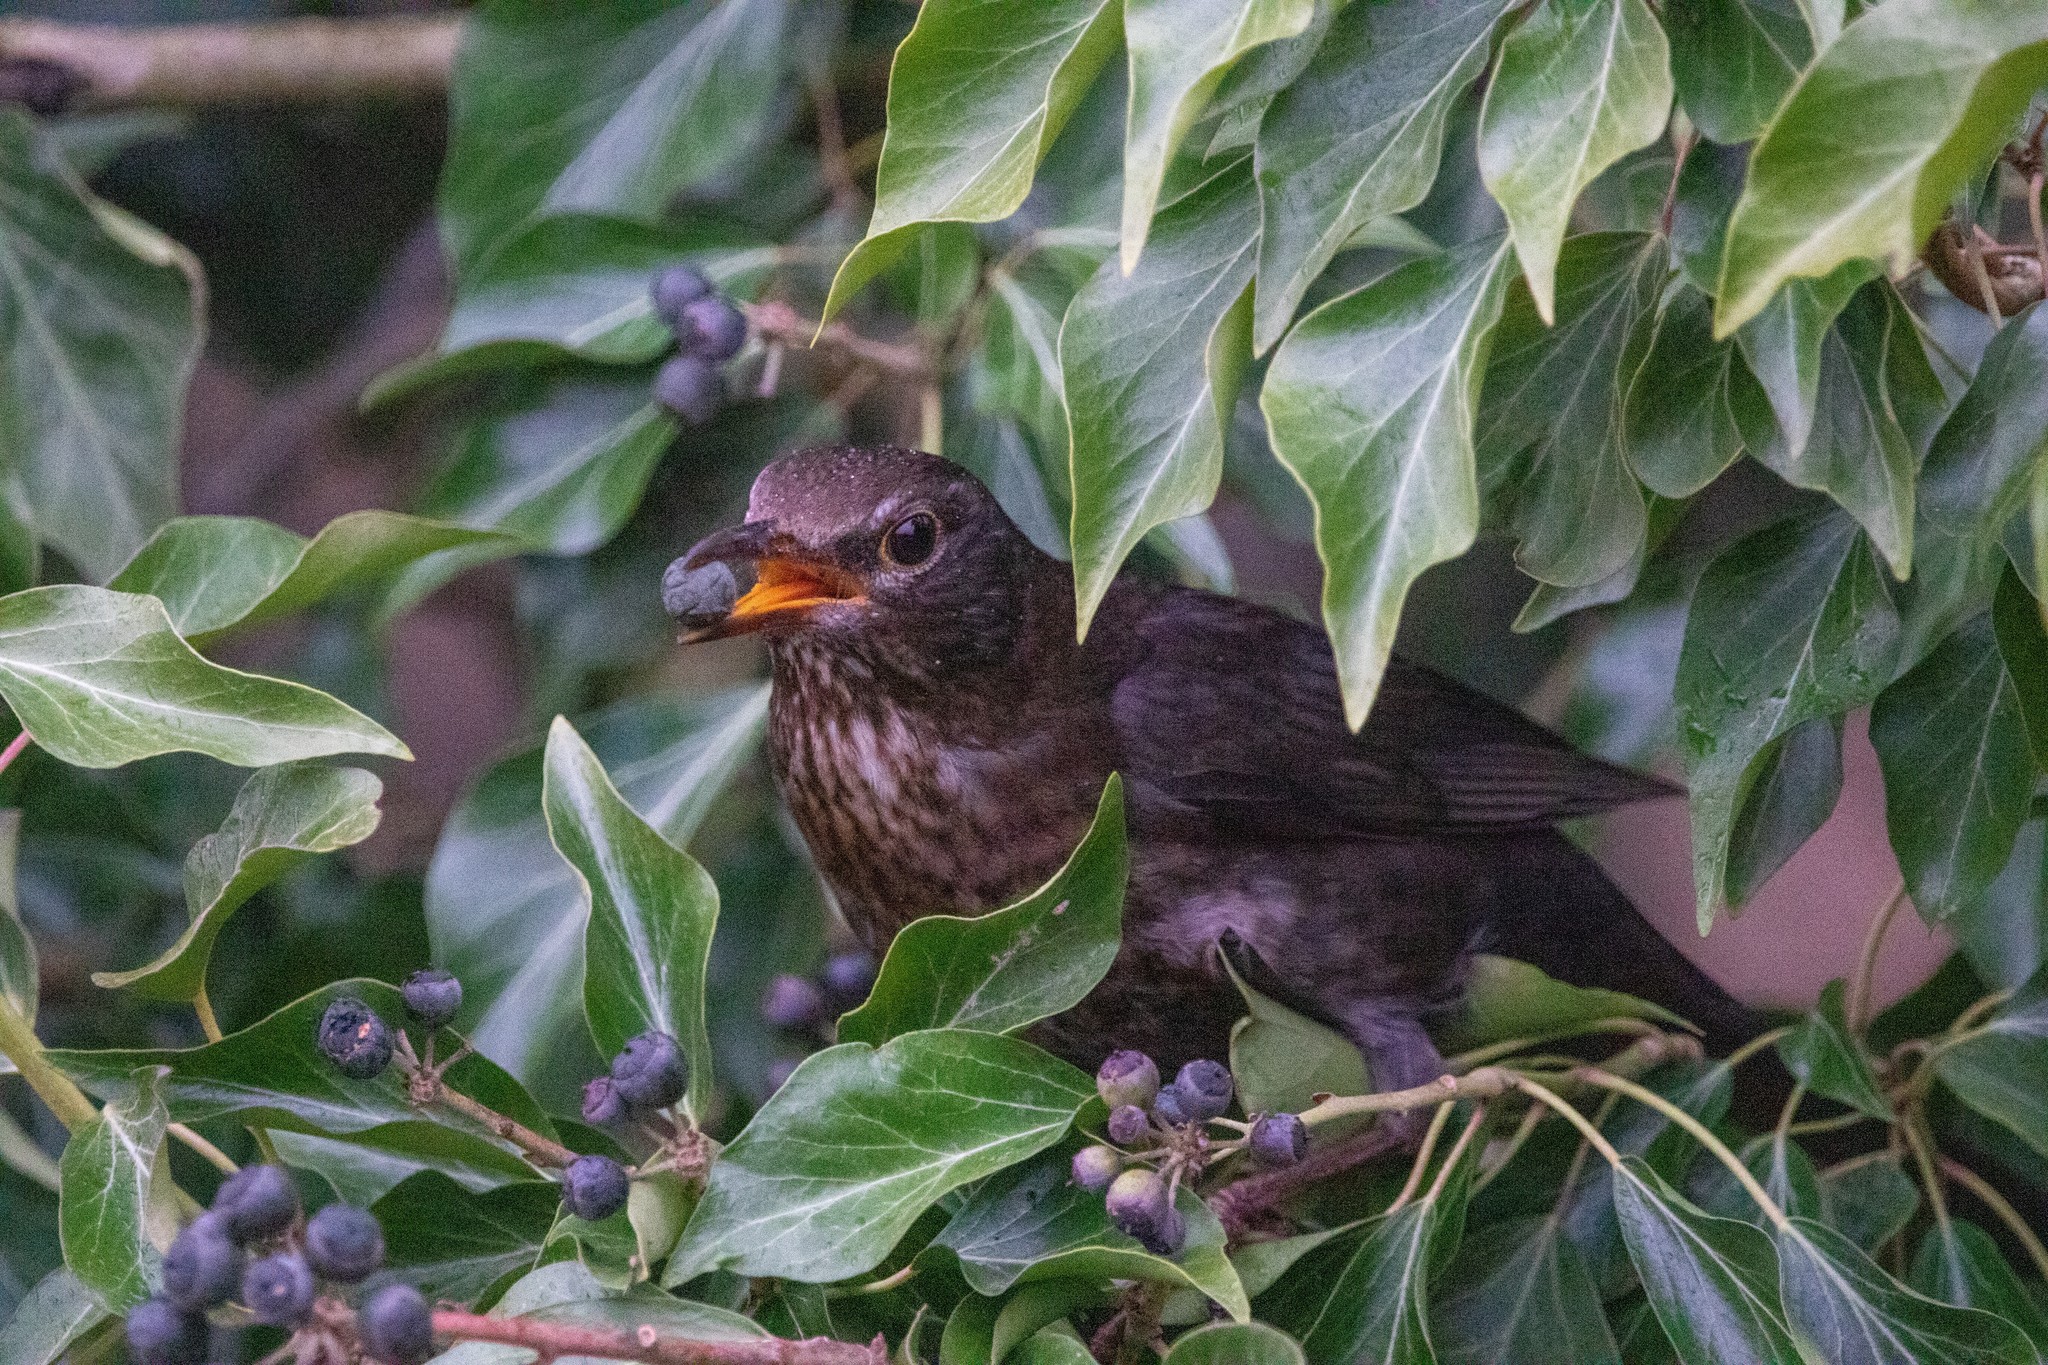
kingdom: Animalia
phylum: Chordata
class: Aves
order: Passeriformes
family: Turdidae
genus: Turdus
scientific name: Turdus merula
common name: Common blackbird
